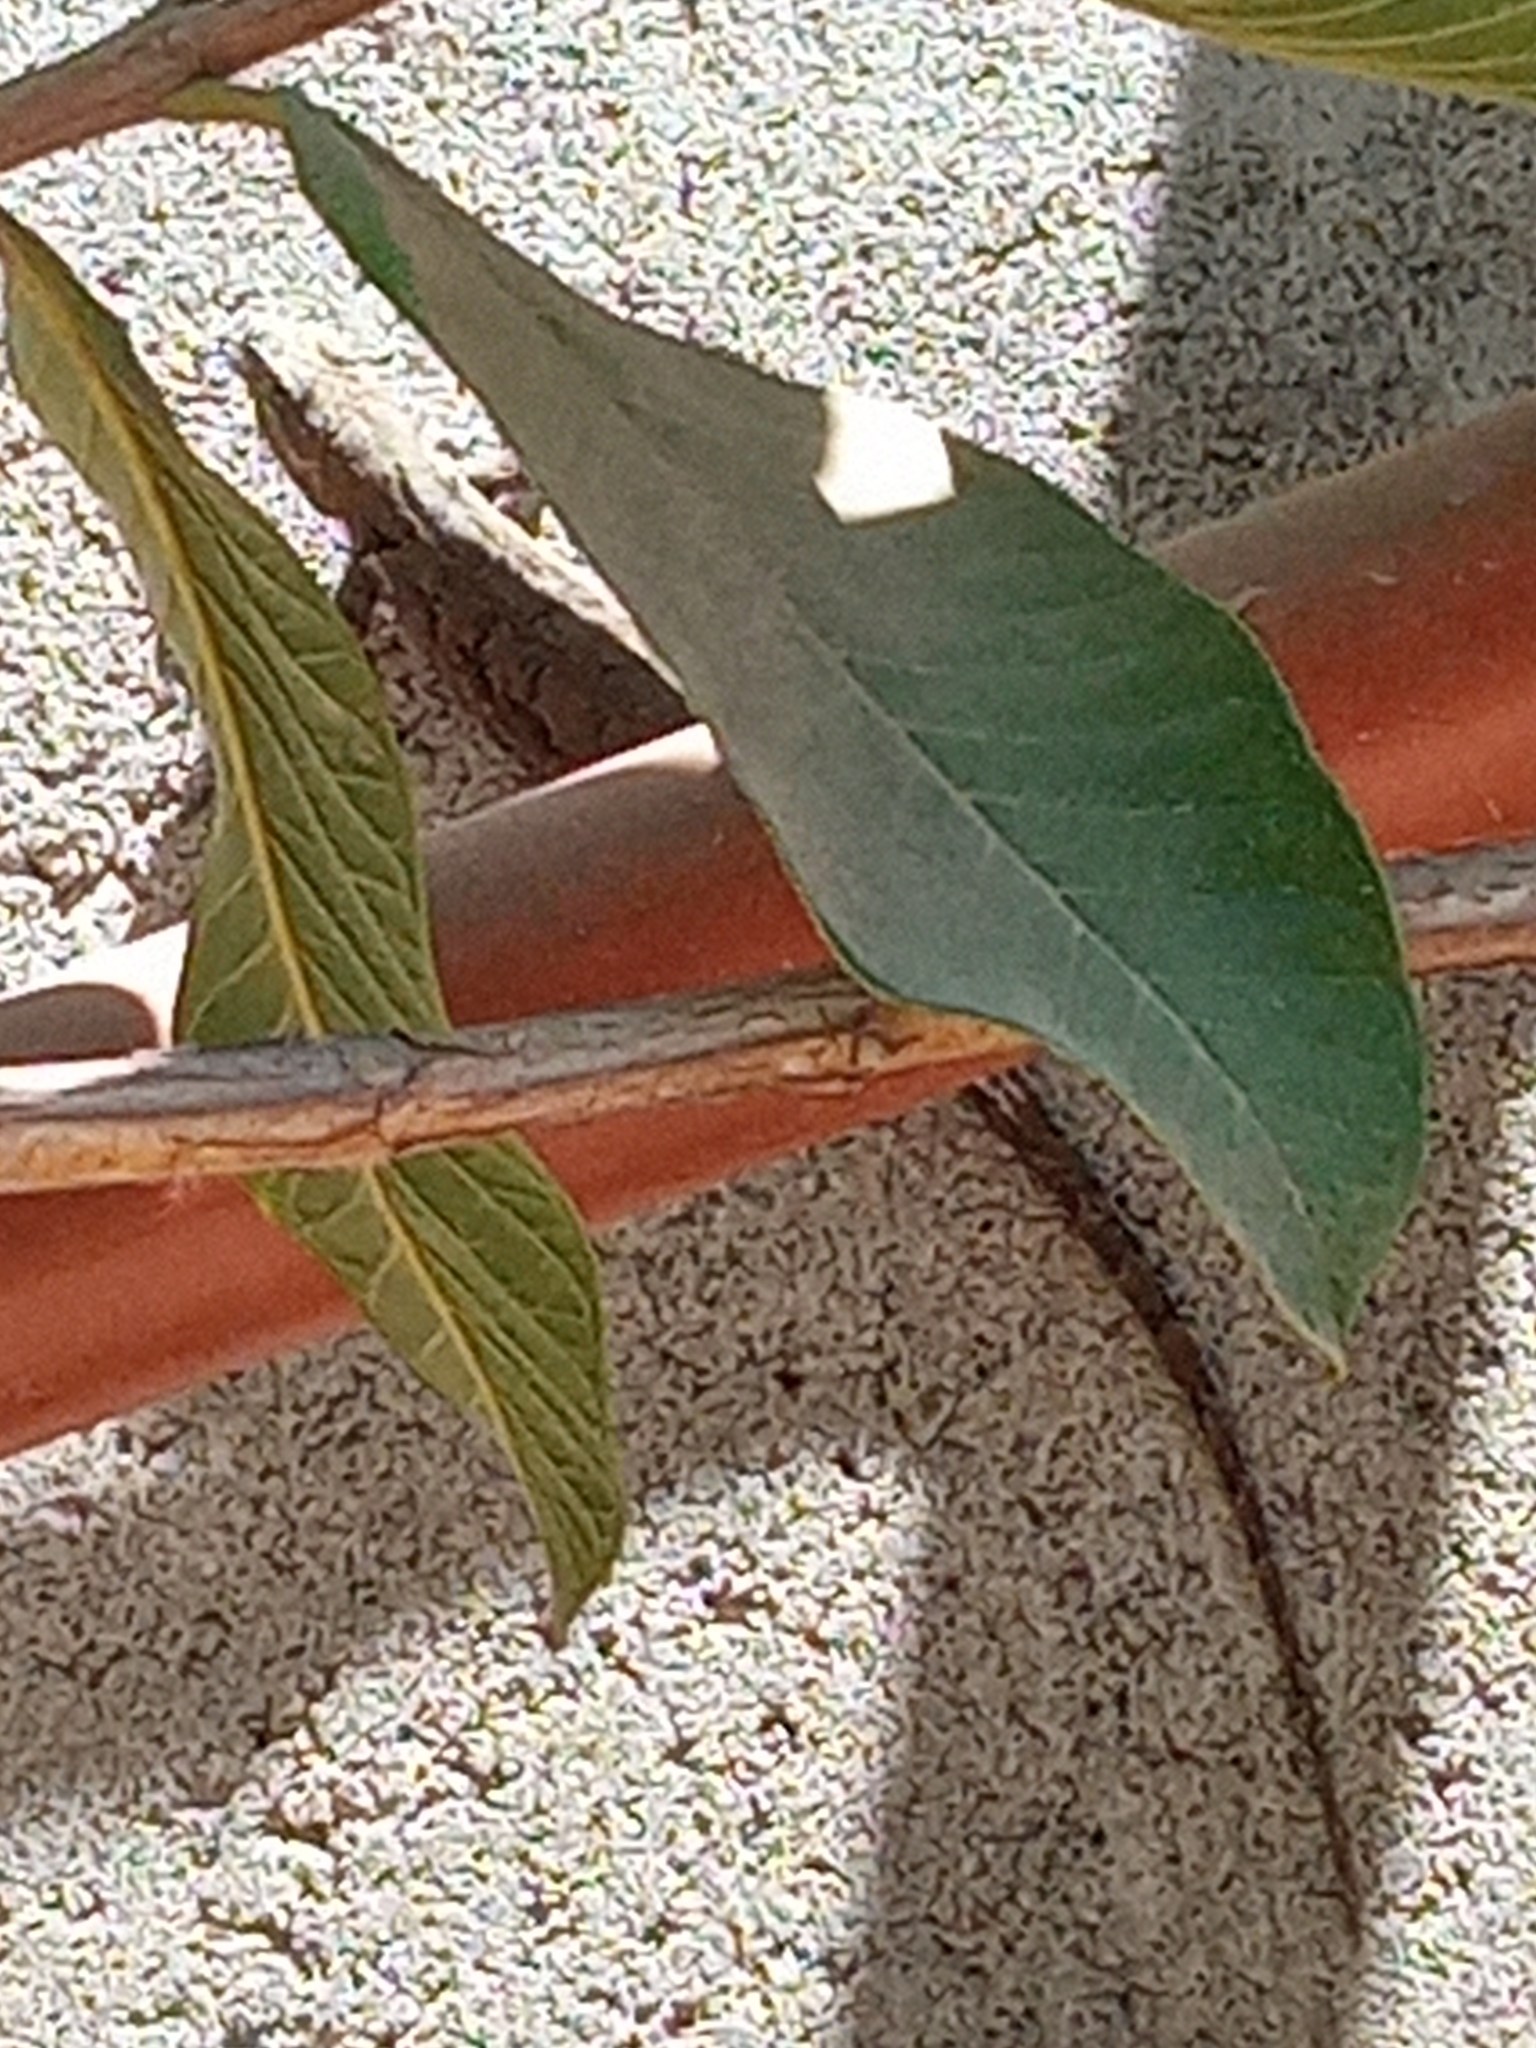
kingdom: Animalia
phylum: Chordata
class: Squamata
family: Phrynosomatidae
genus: Urosaurus
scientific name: Urosaurus ornatus
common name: Ornate tree lizard
